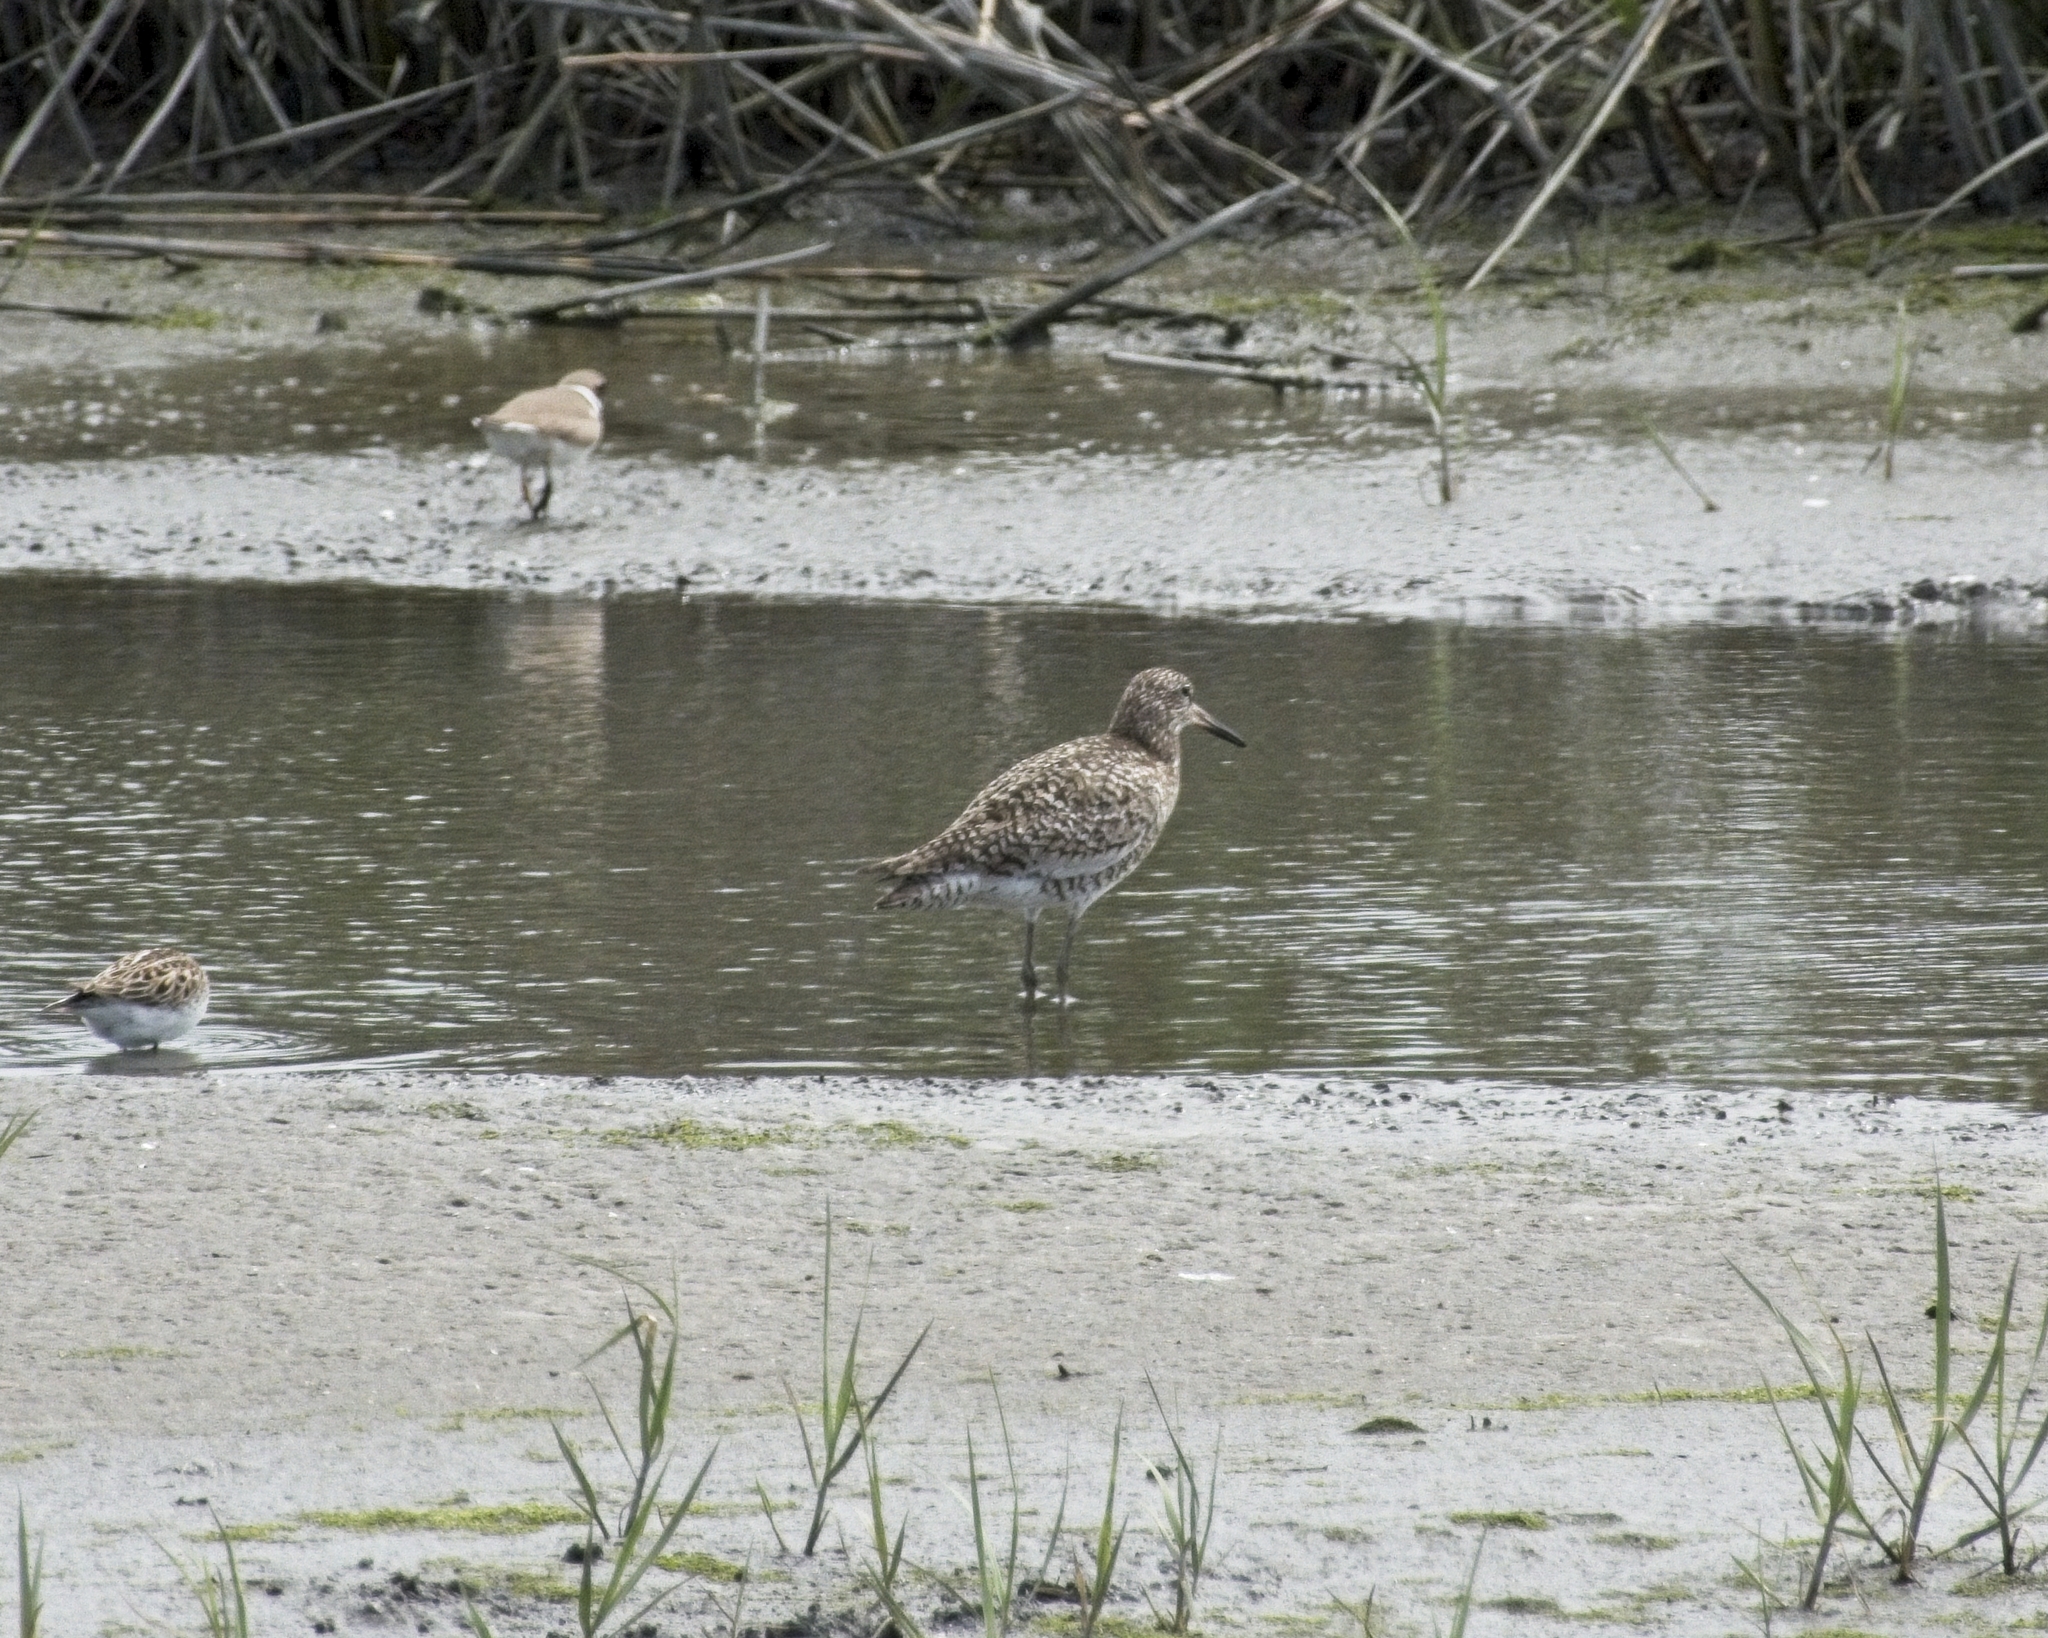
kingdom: Animalia
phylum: Chordata
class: Aves
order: Charadriiformes
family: Scolopacidae
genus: Tringa
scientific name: Tringa semipalmata
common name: Willet
